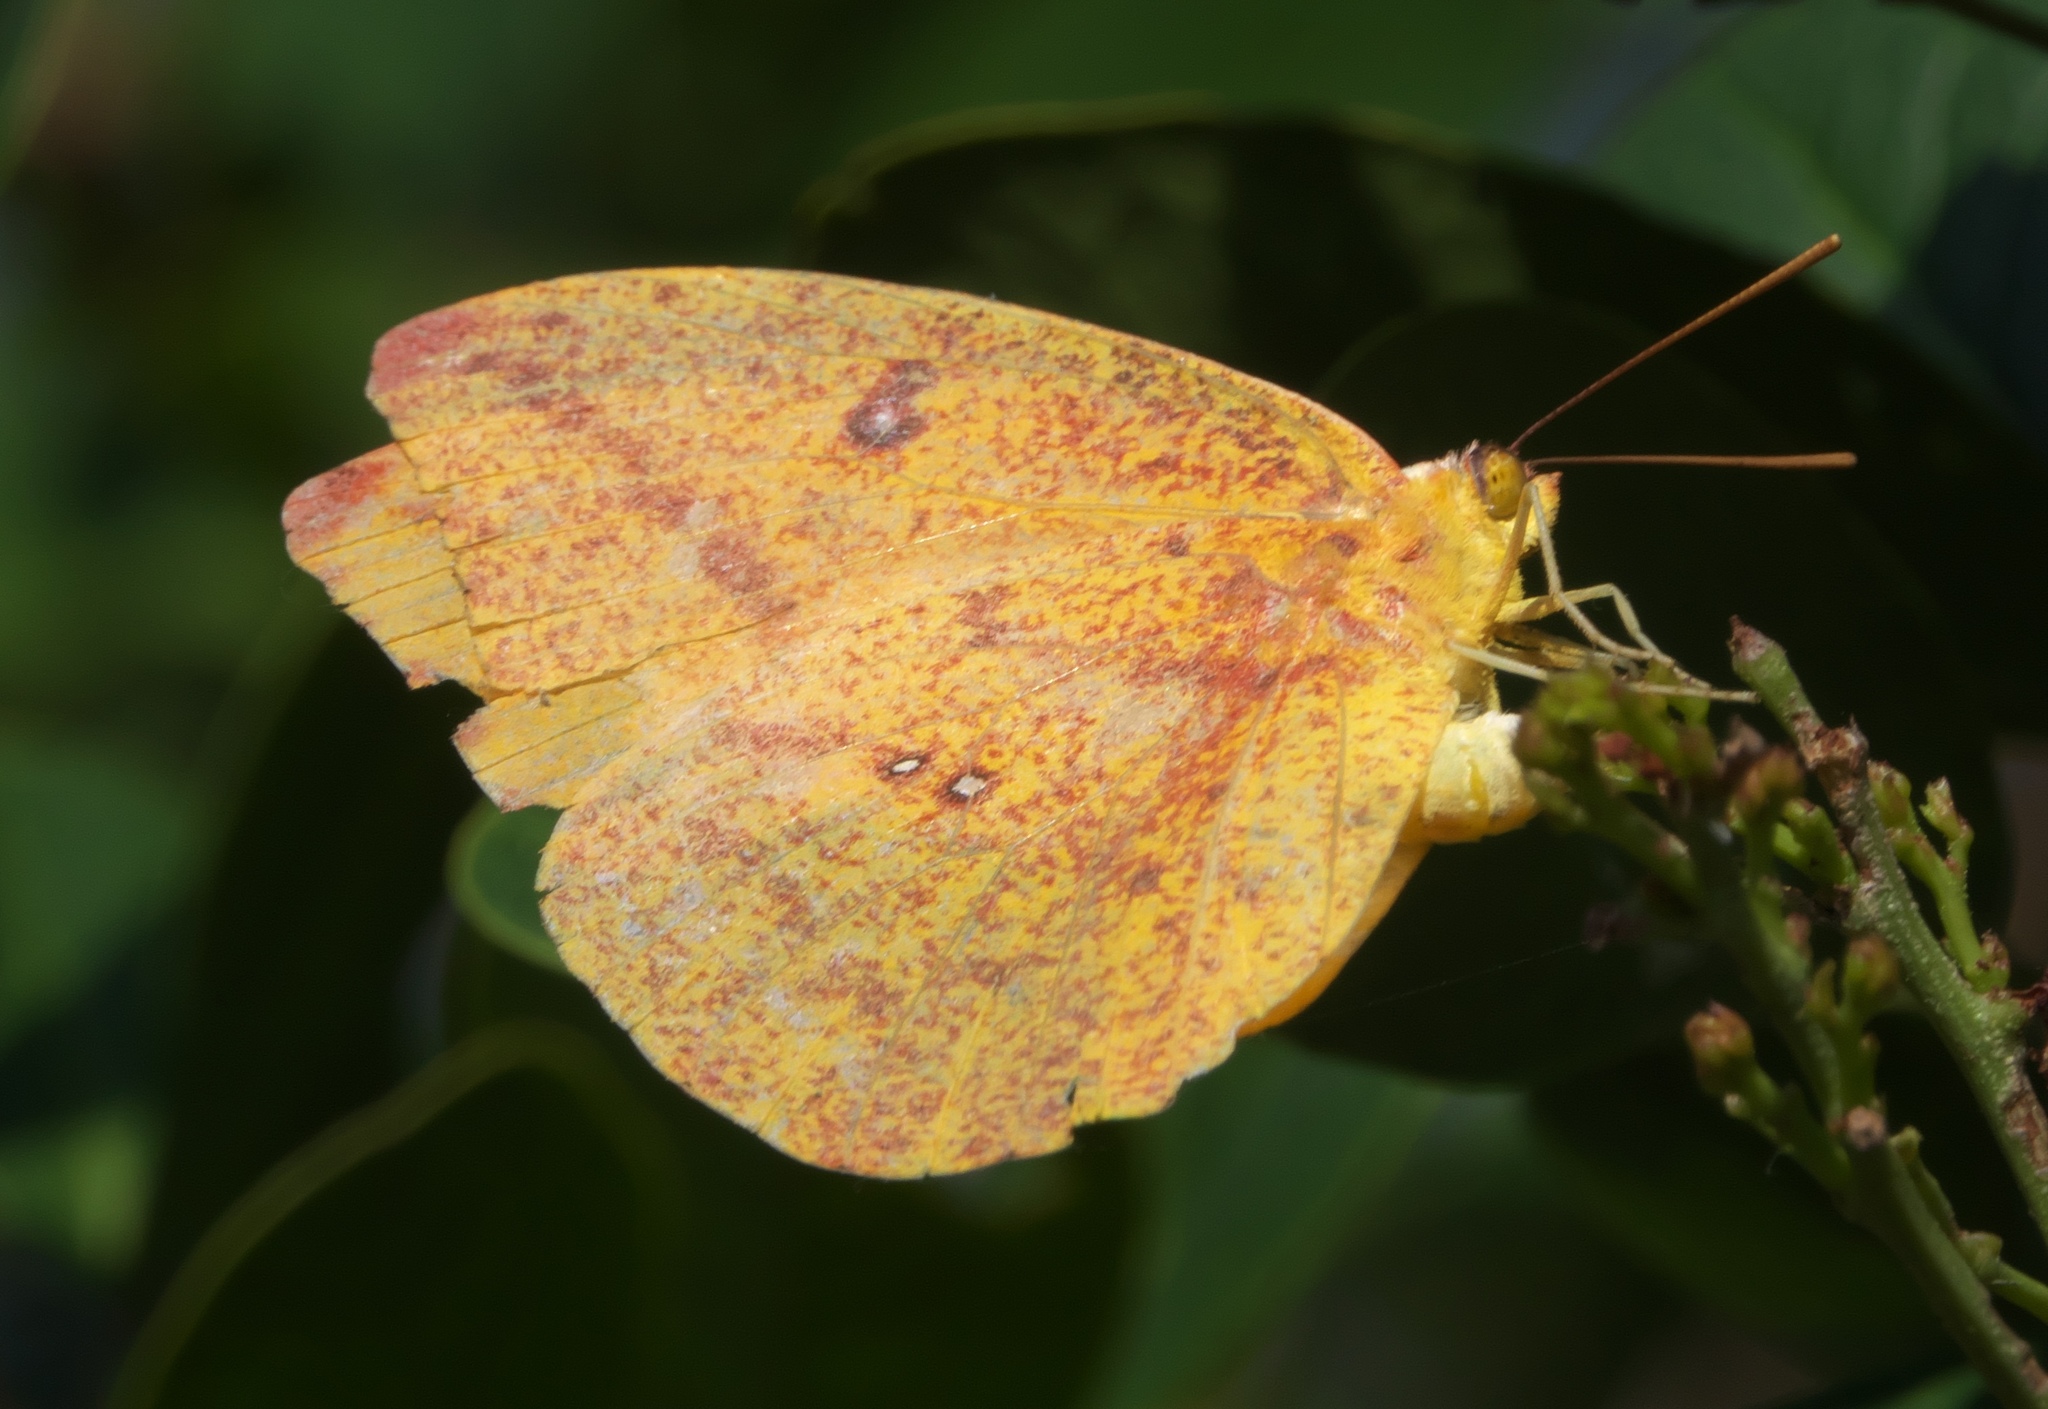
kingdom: Animalia
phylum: Arthropoda
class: Insecta
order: Lepidoptera
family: Pieridae
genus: Phoebis
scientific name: Phoebis agarithe
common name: Large orange sulphur
